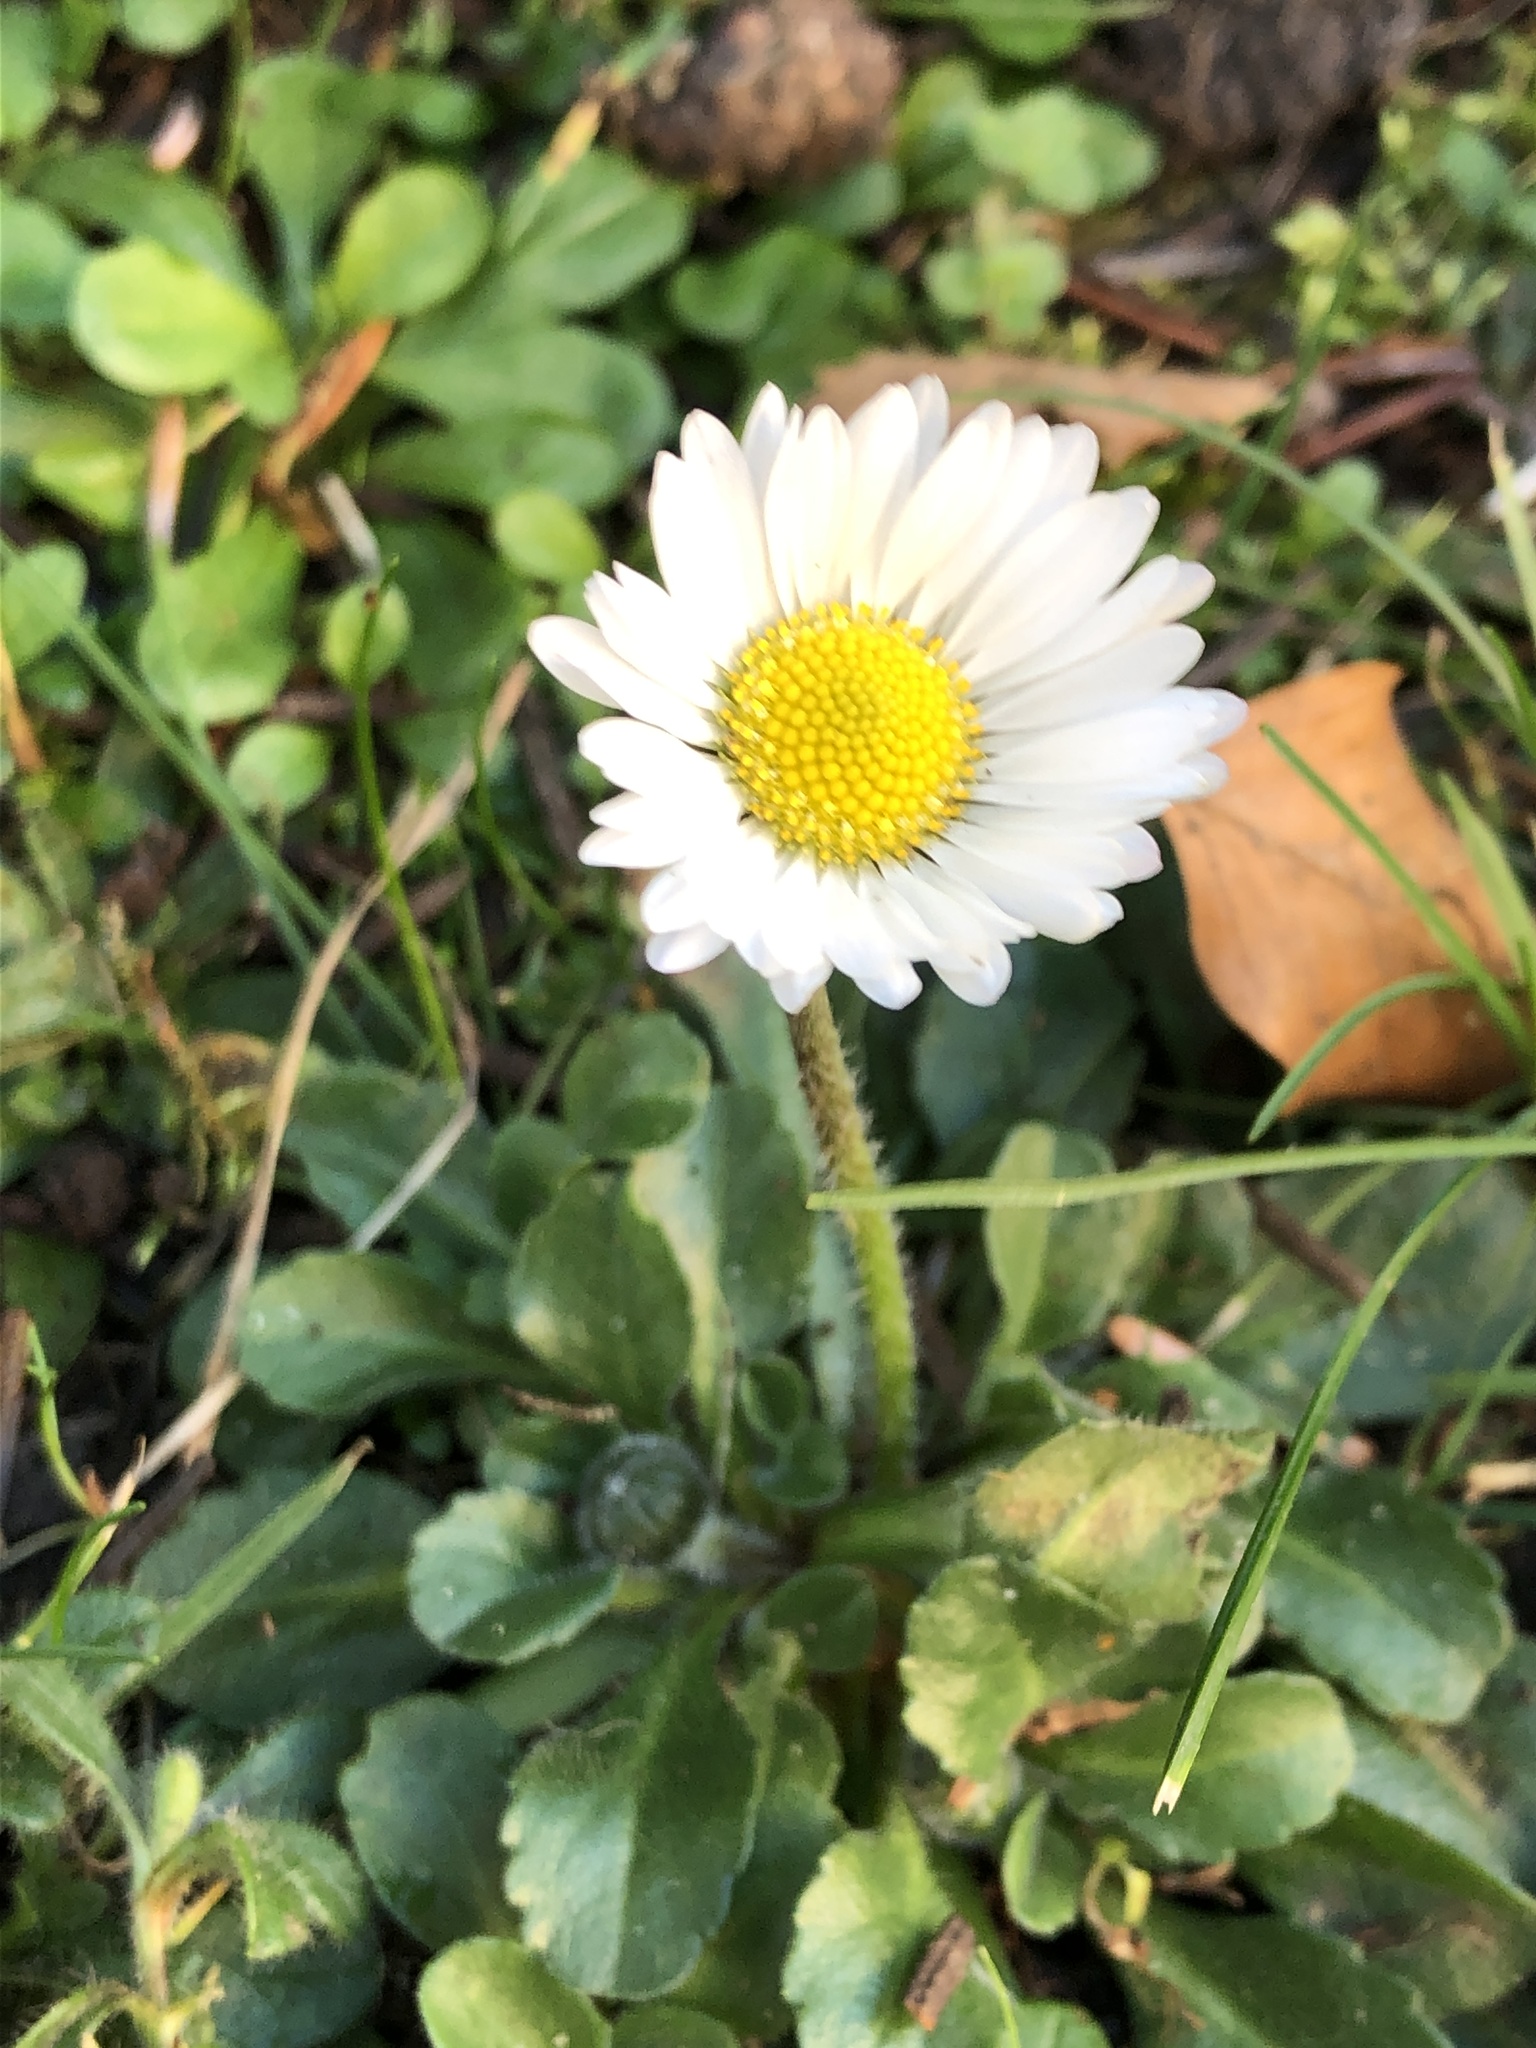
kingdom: Plantae
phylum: Tracheophyta
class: Magnoliopsida
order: Asterales
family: Asteraceae
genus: Bellis
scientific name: Bellis perennis
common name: Lawndaisy
